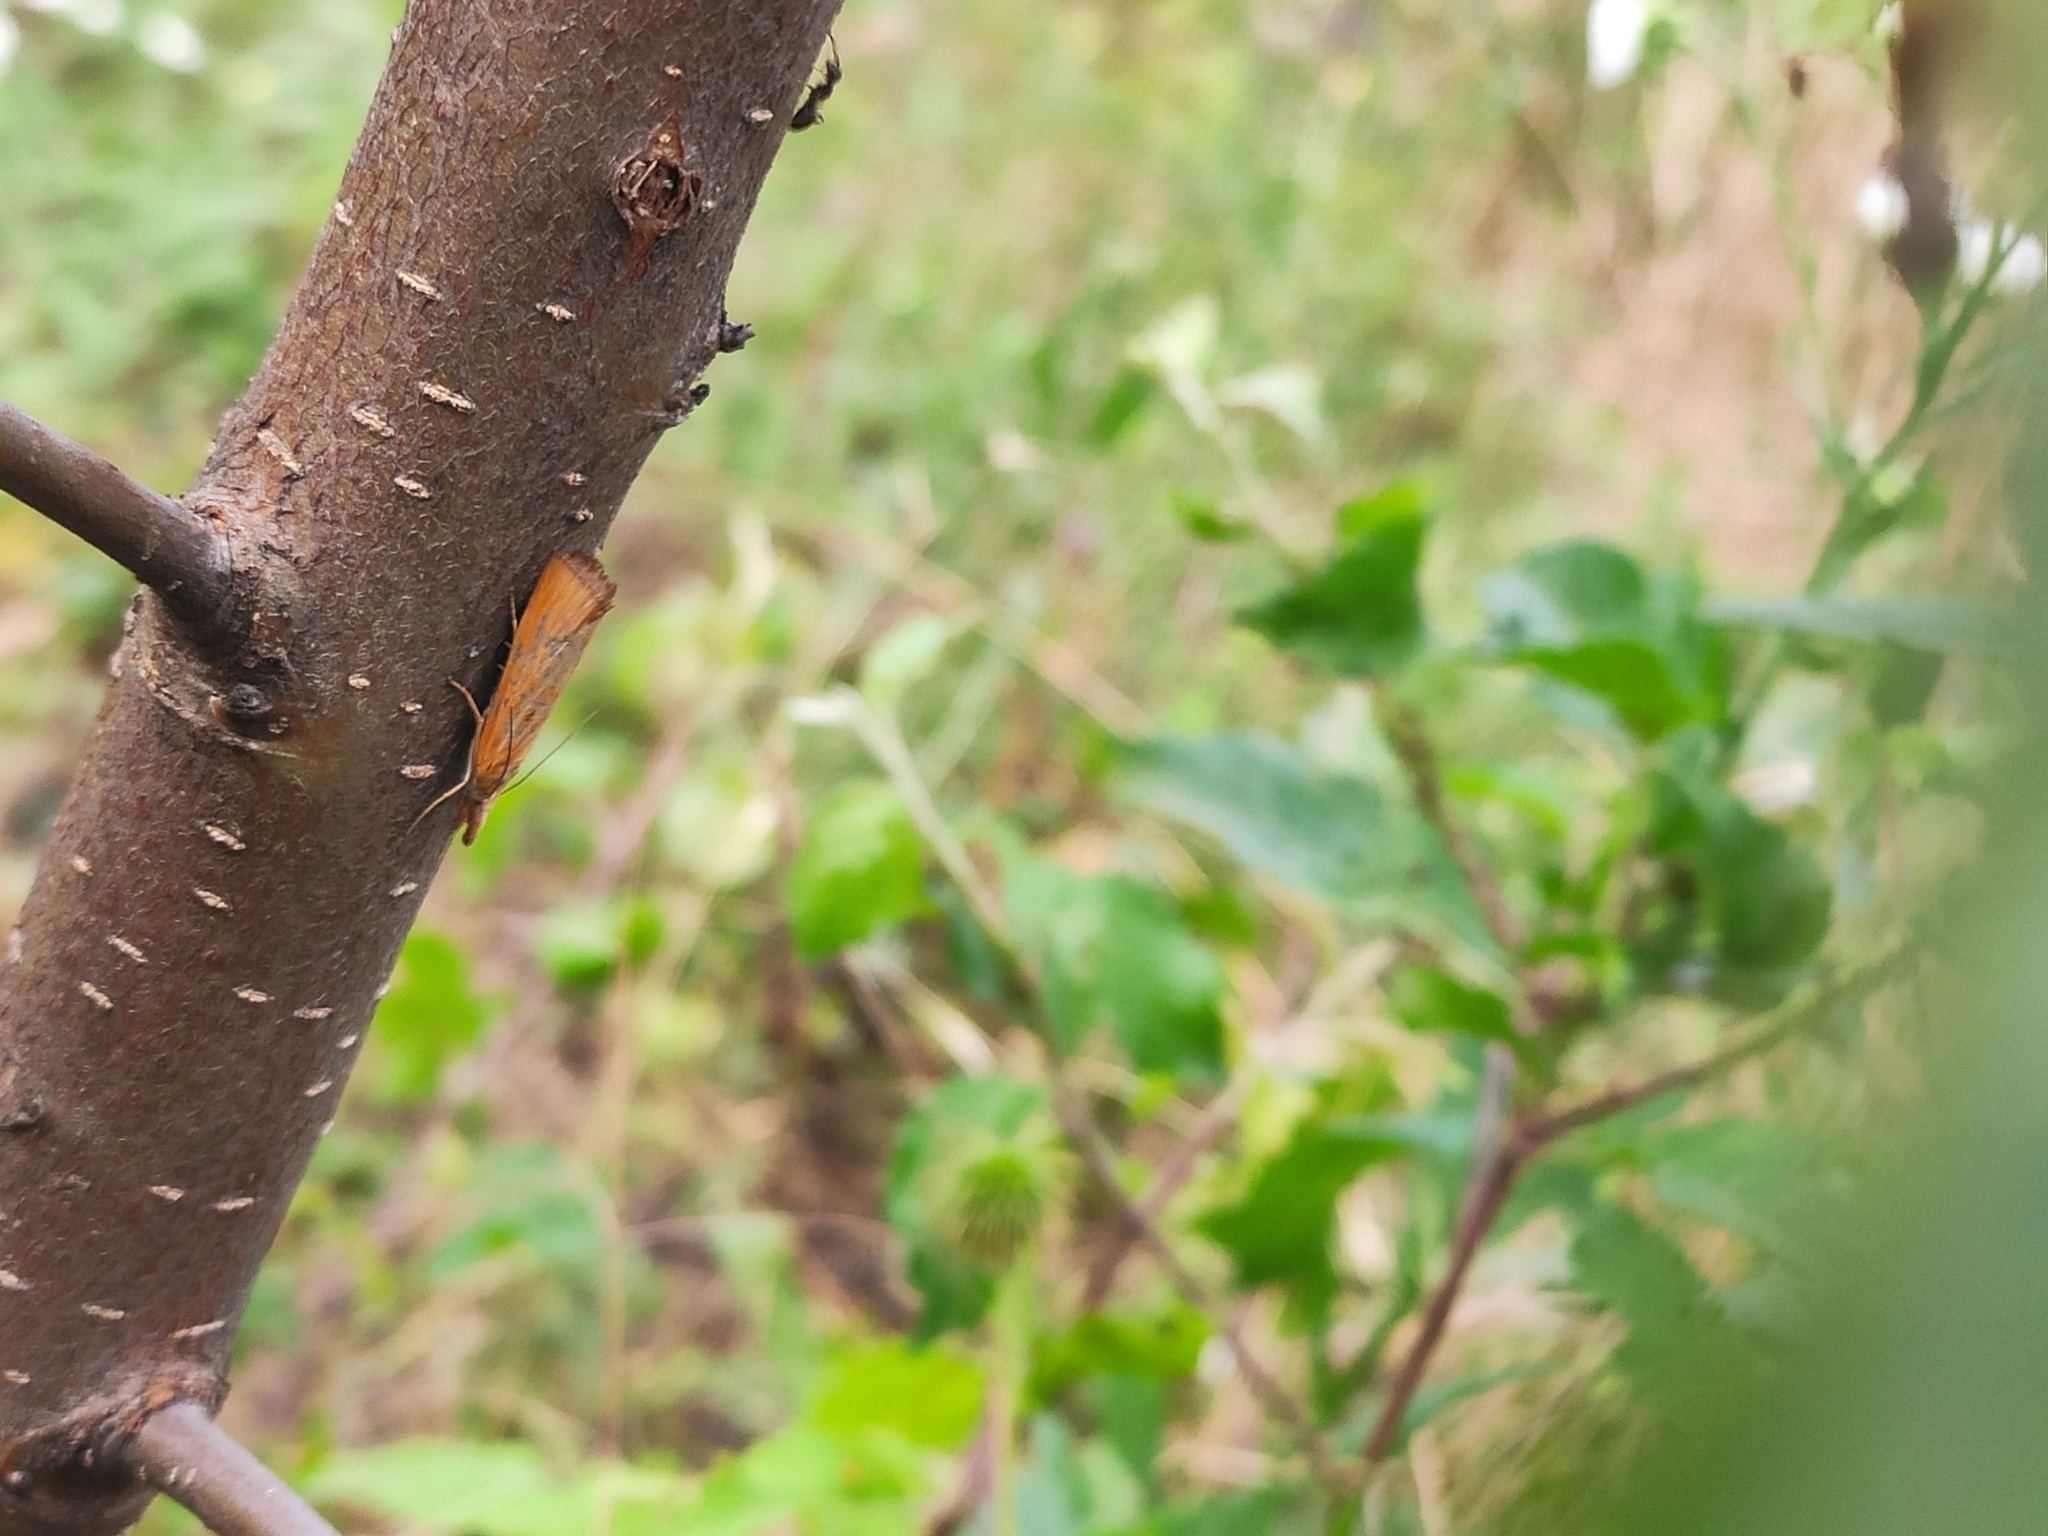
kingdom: Animalia
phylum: Arthropoda
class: Insecta
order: Lepidoptera
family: Crambidae
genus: Pediasia
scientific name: Pediasia luteella
